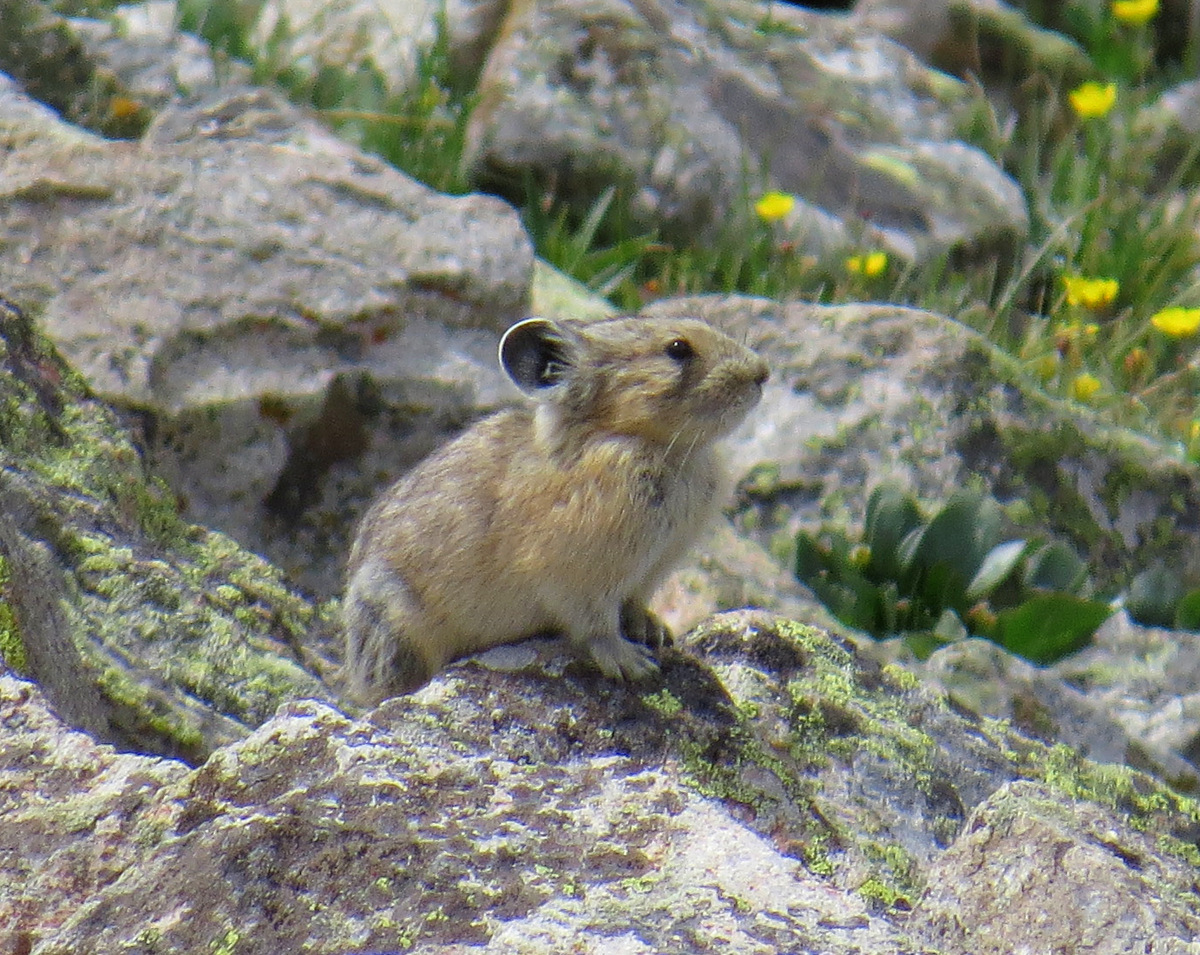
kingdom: Animalia
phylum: Chordata
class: Mammalia
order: Lagomorpha
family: Ochotonidae
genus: Ochotona
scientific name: Ochotona princeps
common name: American pika
